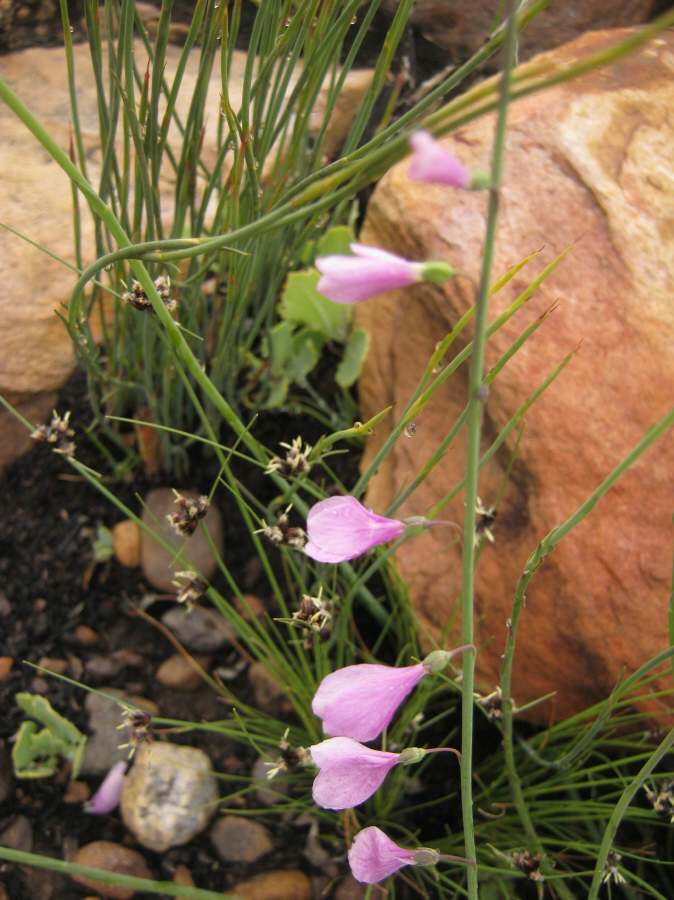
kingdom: Plantae
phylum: Tracheophyta
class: Magnoliopsida
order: Brassicales
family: Brassicaceae
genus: Heliophila
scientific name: Heliophila juncea
